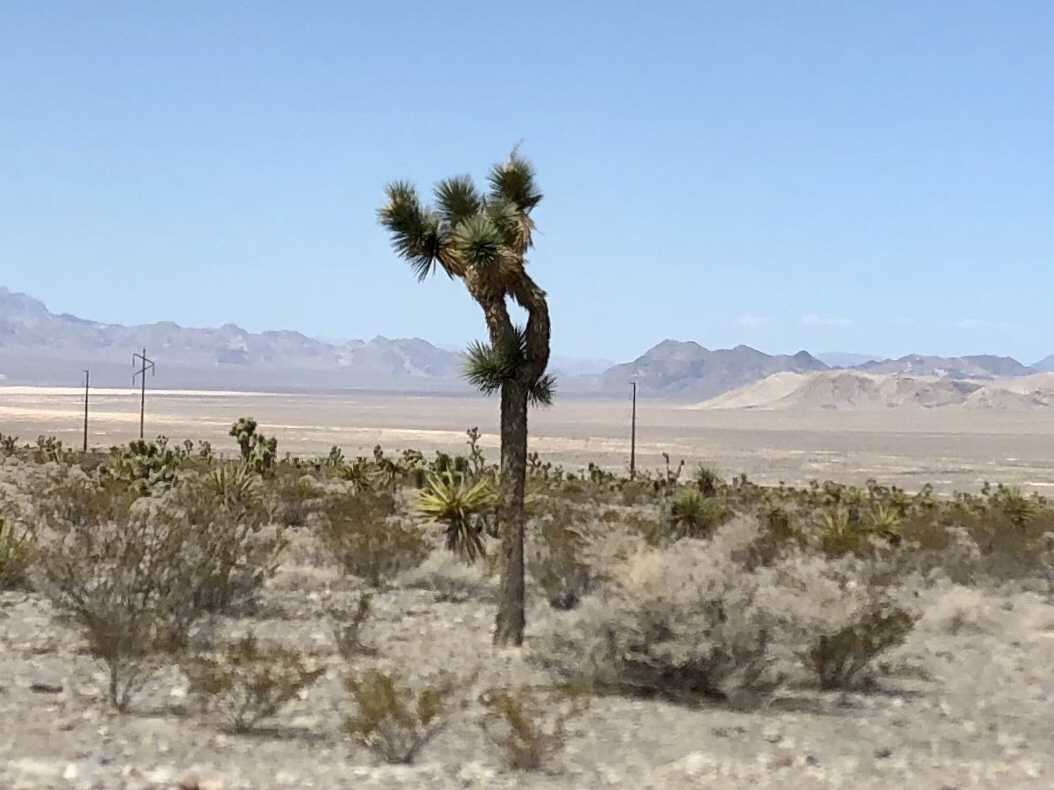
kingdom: Plantae
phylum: Tracheophyta
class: Liliopsida
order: Asparagales
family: Asparagaceae
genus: Yucca
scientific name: Yucca brevifolia
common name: Joshua tree
